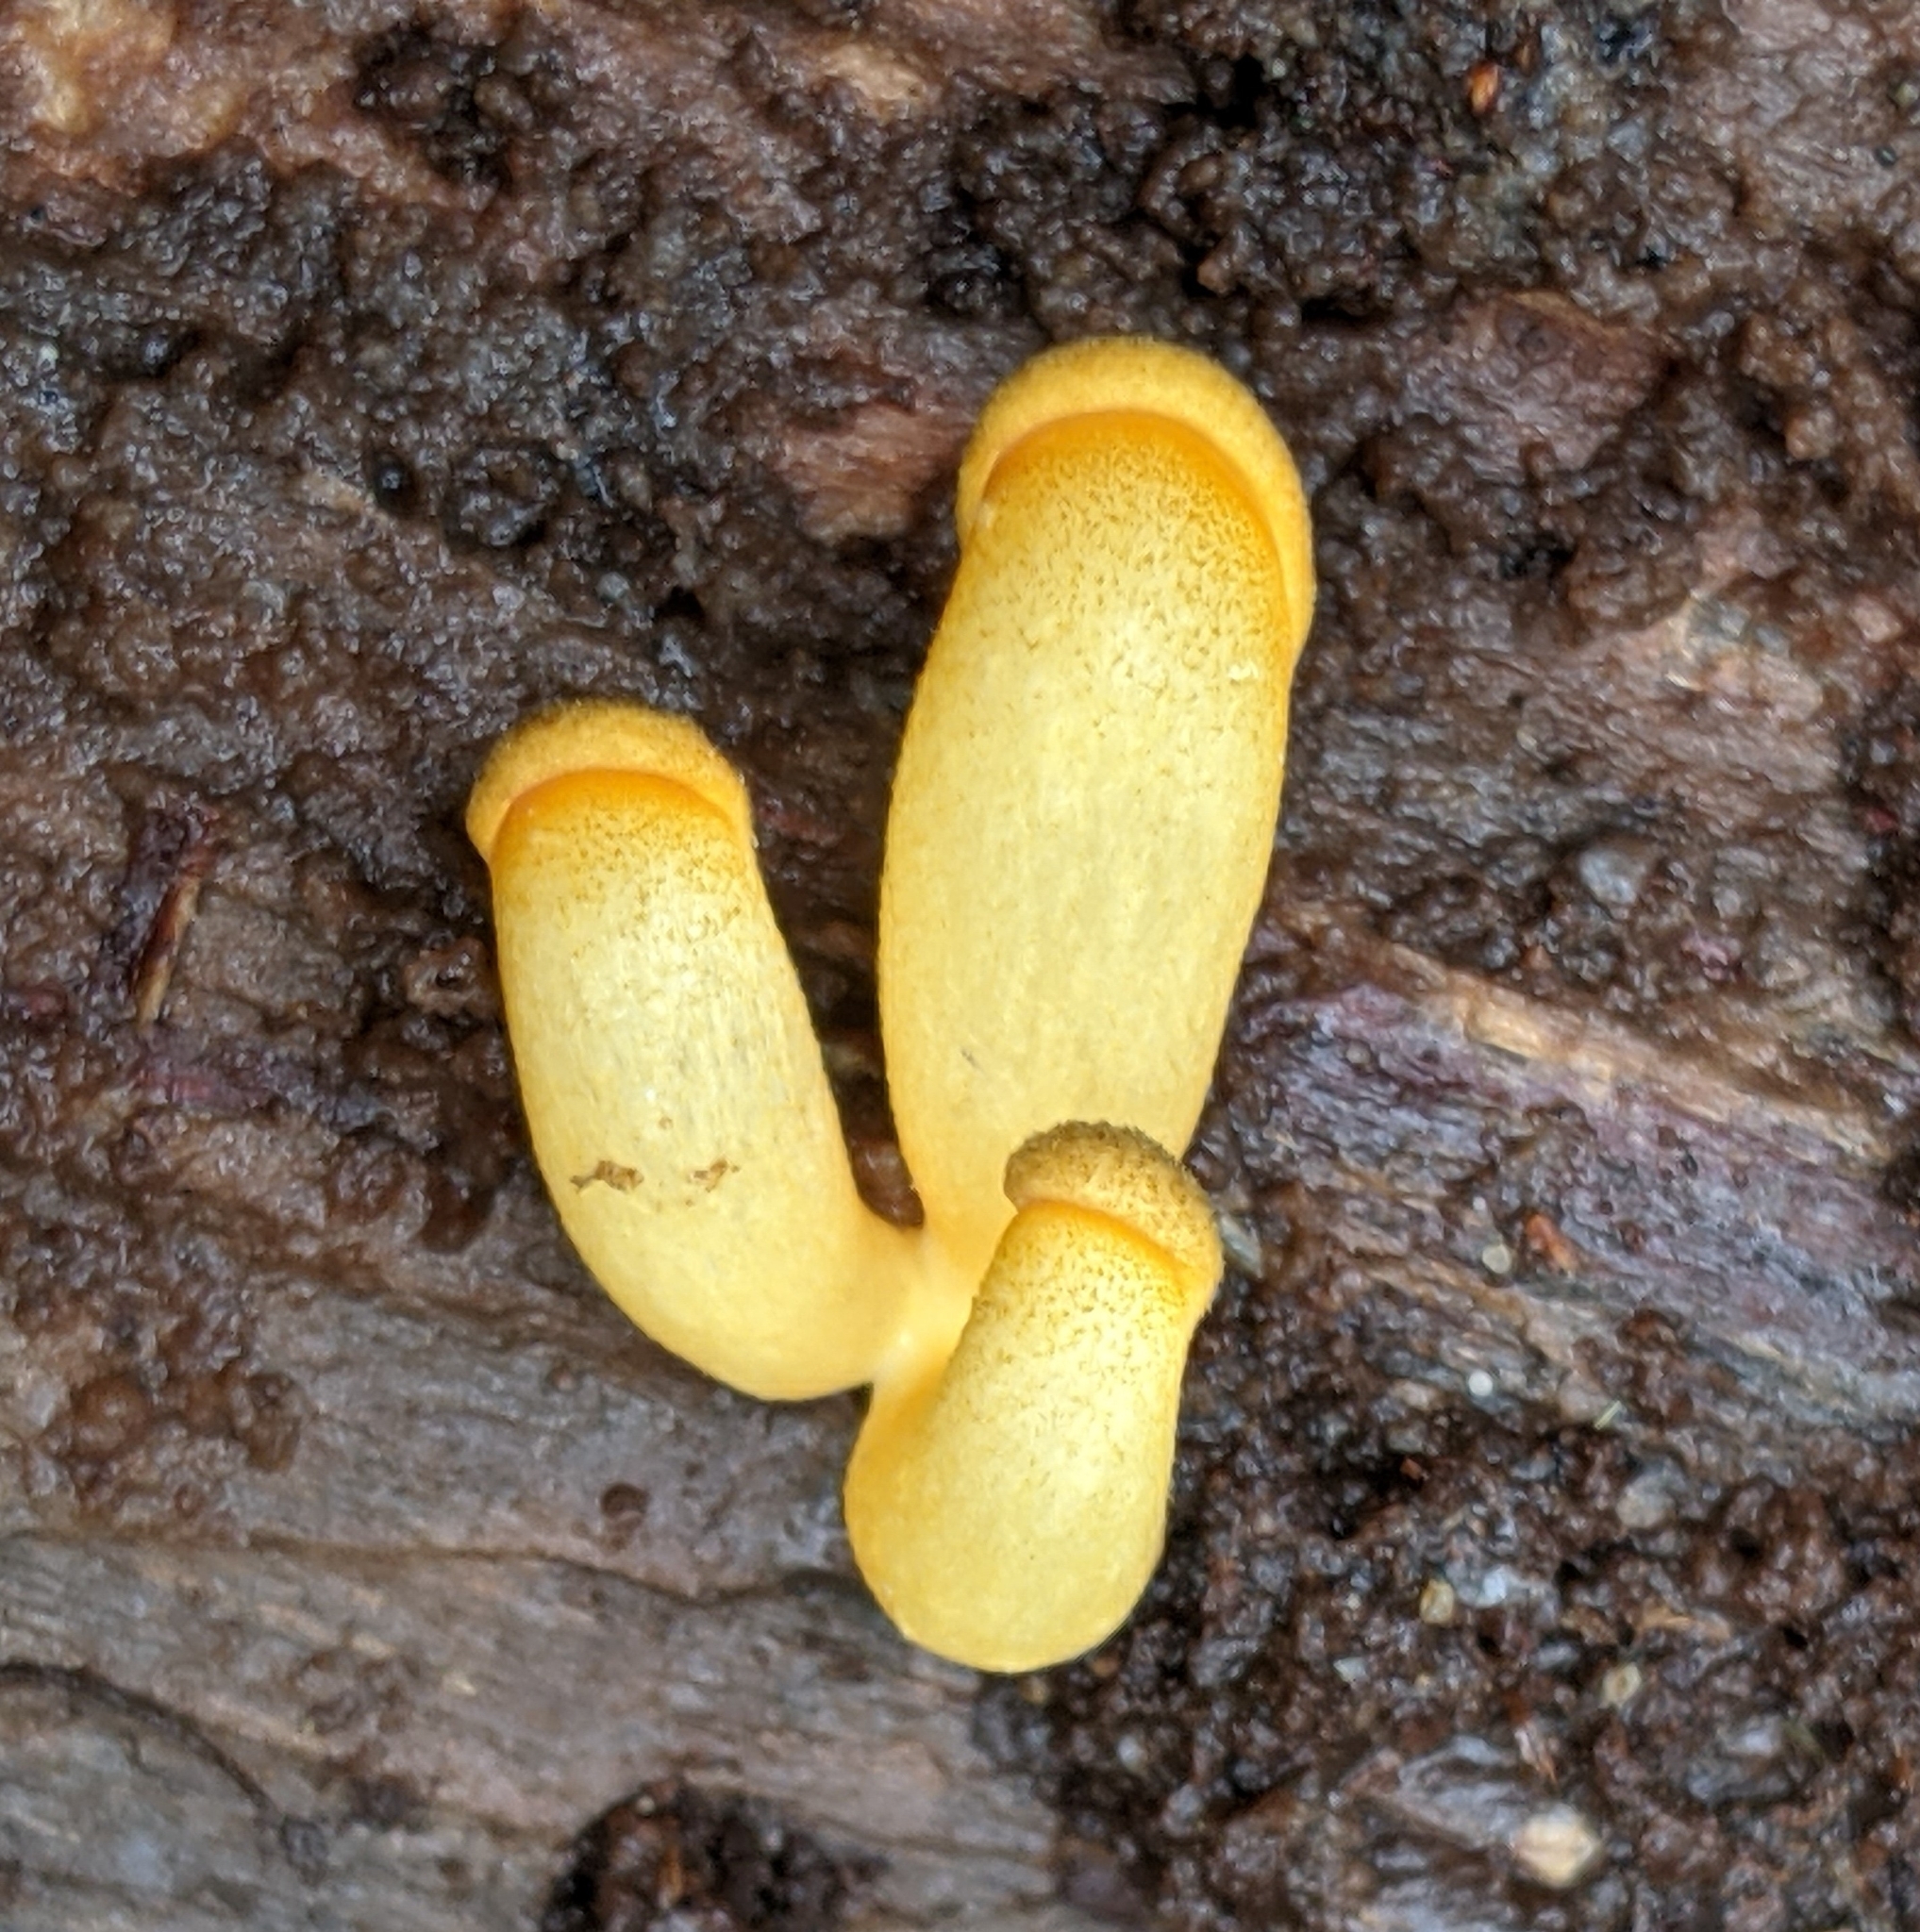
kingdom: Fungi
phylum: Basidiomycota
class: Agaricomycetes
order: Agaricales
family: Sarcomyxaceae
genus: Sarcomyxa
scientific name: Sarcomyxa serotina
